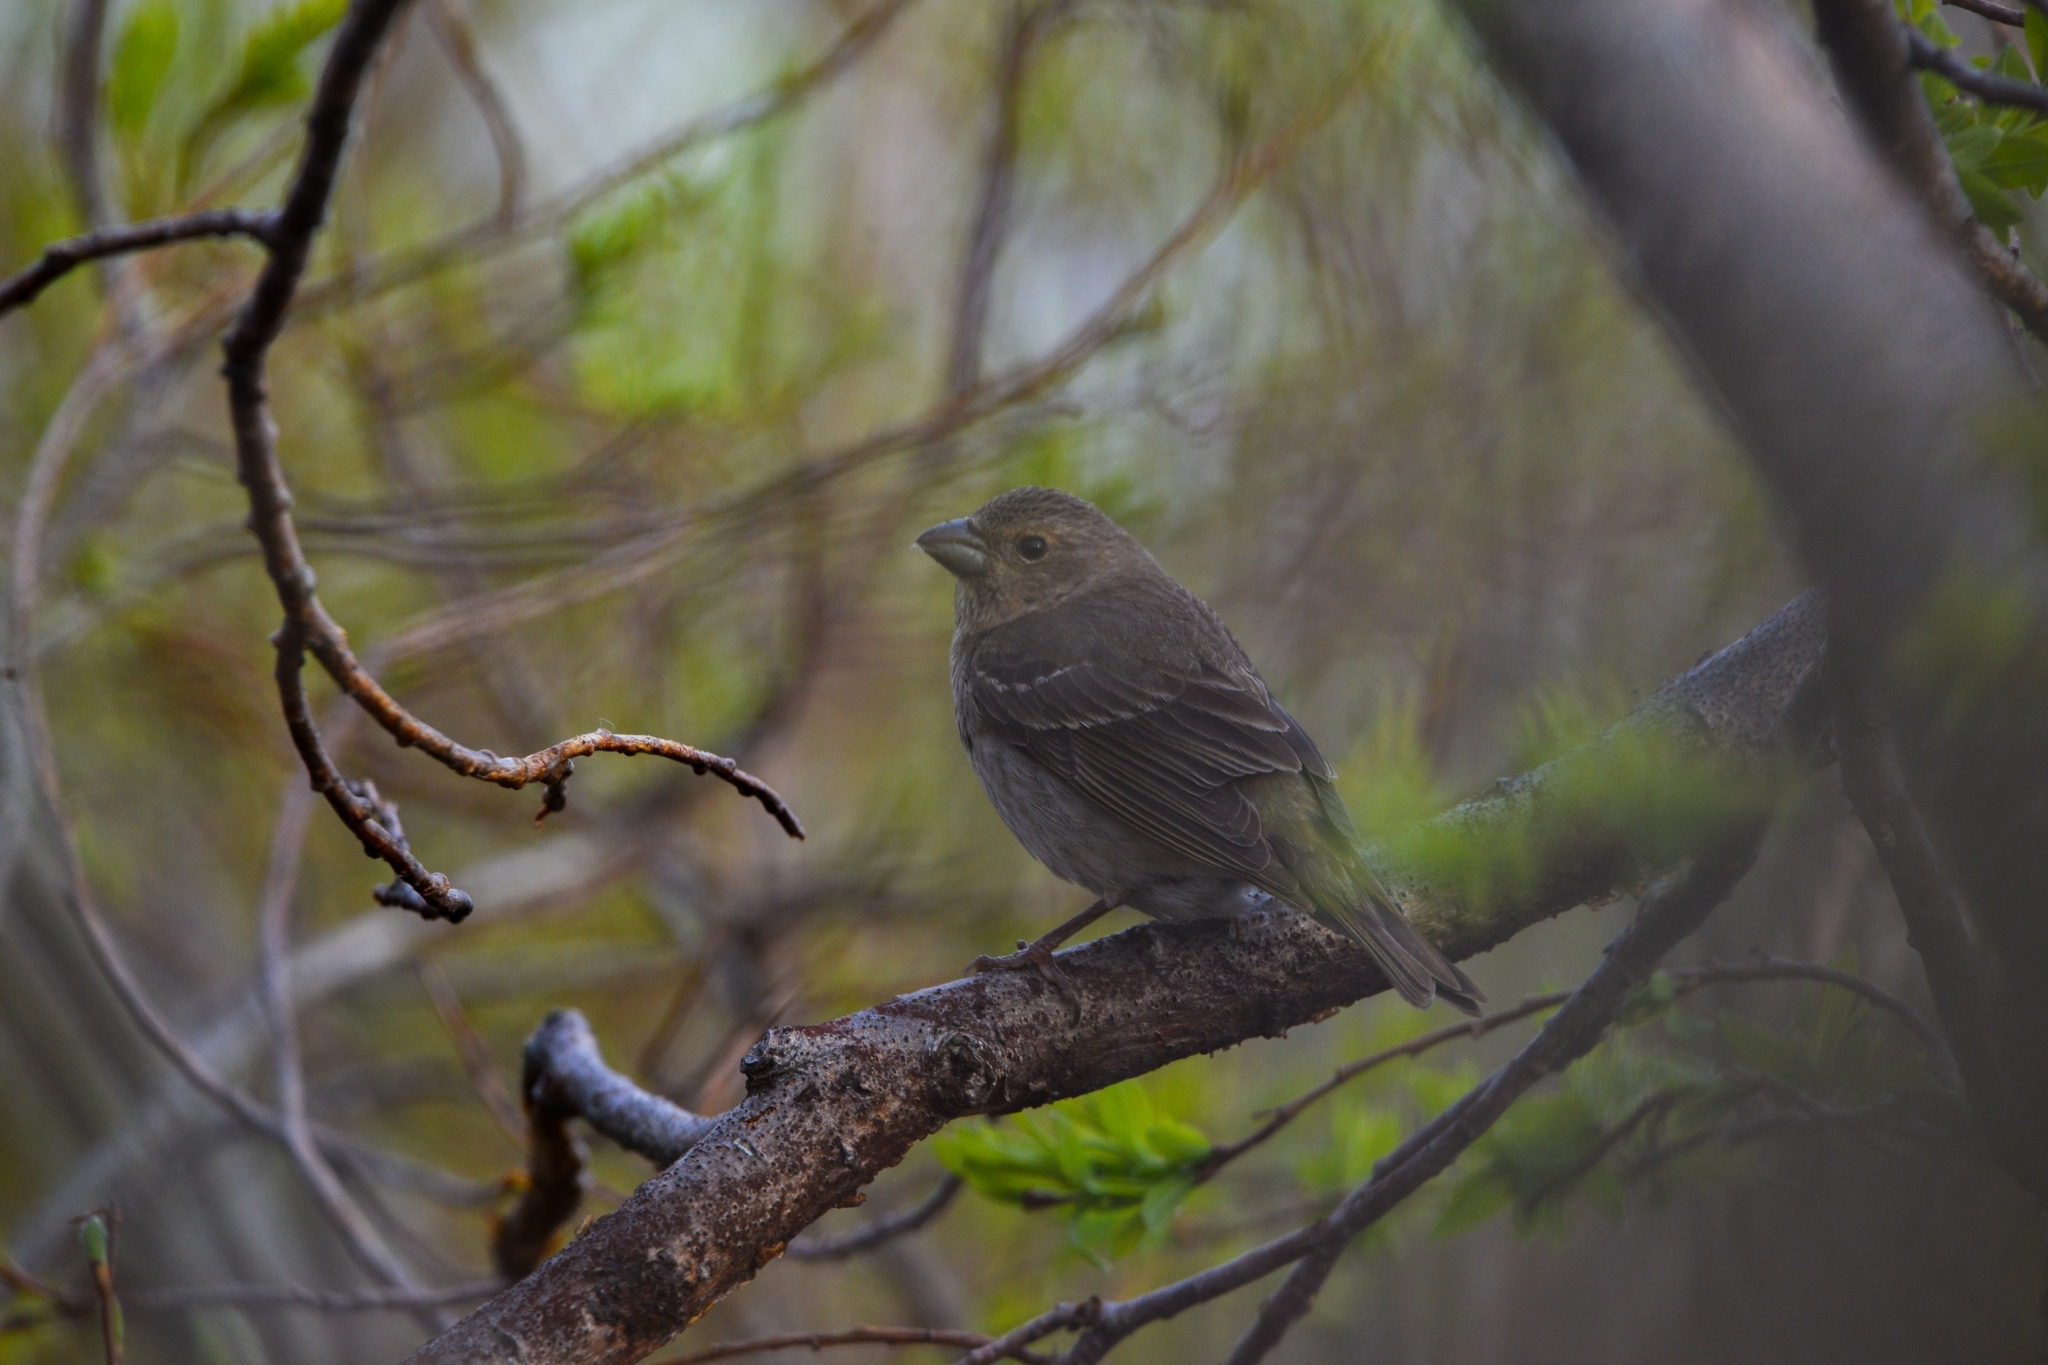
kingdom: Animalia
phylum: Chordata
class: Aves
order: Passeriformes
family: Fringillidae
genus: Carpodacus
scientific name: Carpodacus erythrinus
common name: Common rosefinch
